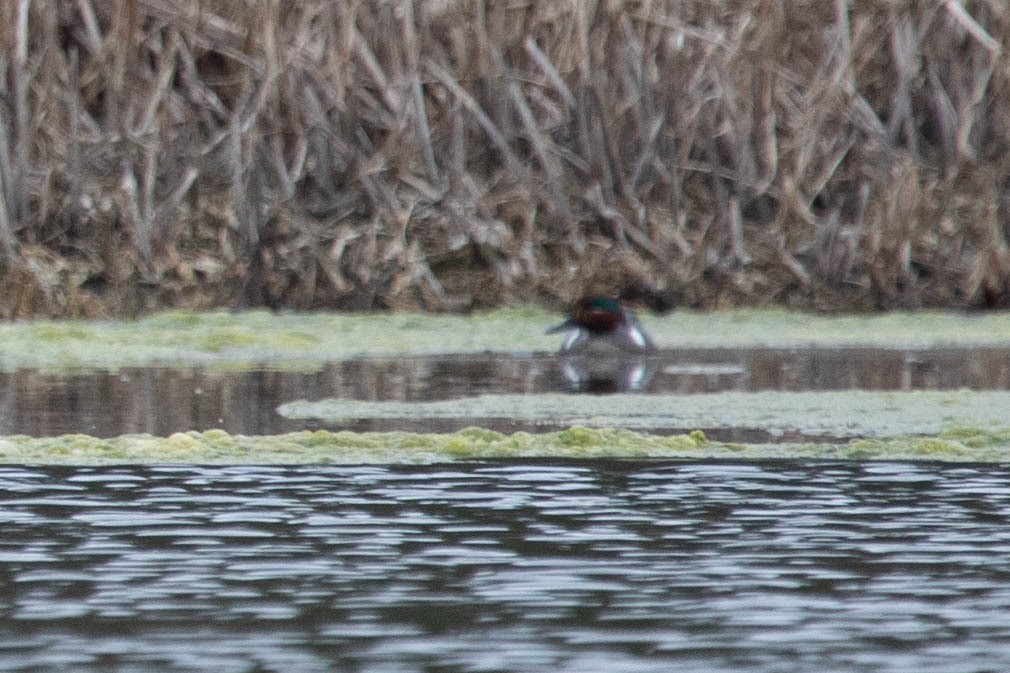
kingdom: Animalia
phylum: Chordata
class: Aves
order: Anseriformes
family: Anatidae
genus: Anas
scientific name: Anas crecca
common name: Eurasian teal
